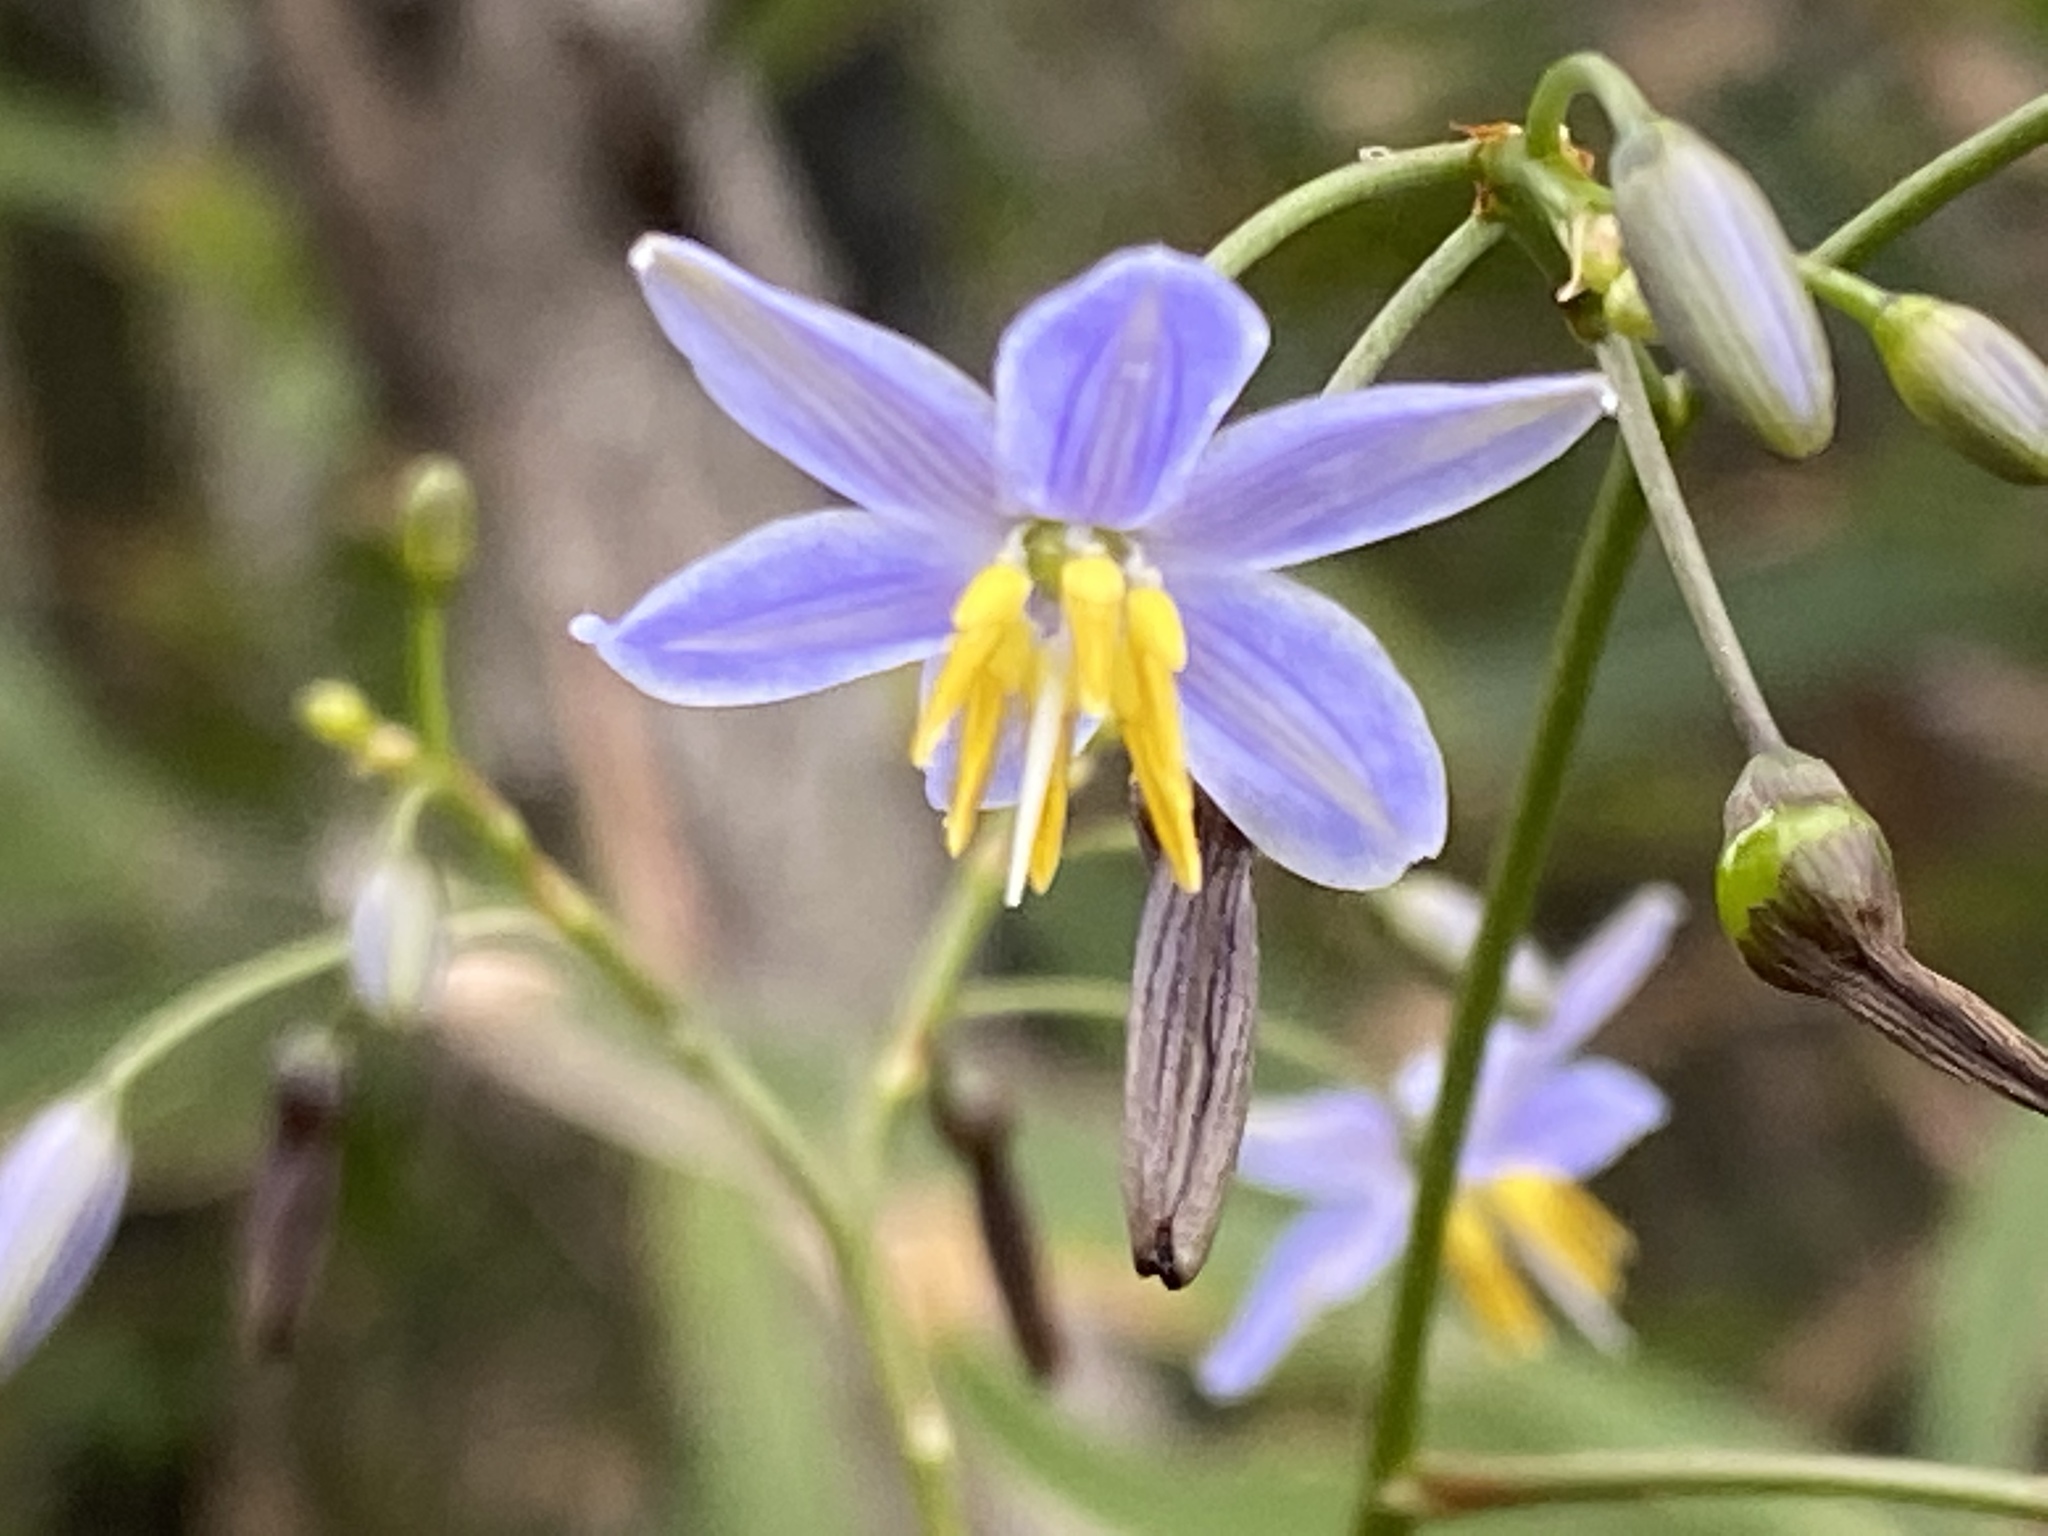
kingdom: Plantae
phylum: Tracheophyta
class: Liliopsida
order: Asparagales
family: Asphodelaceae
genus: Dianella
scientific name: Dianella ensifolia
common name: New zealand lilyplant
